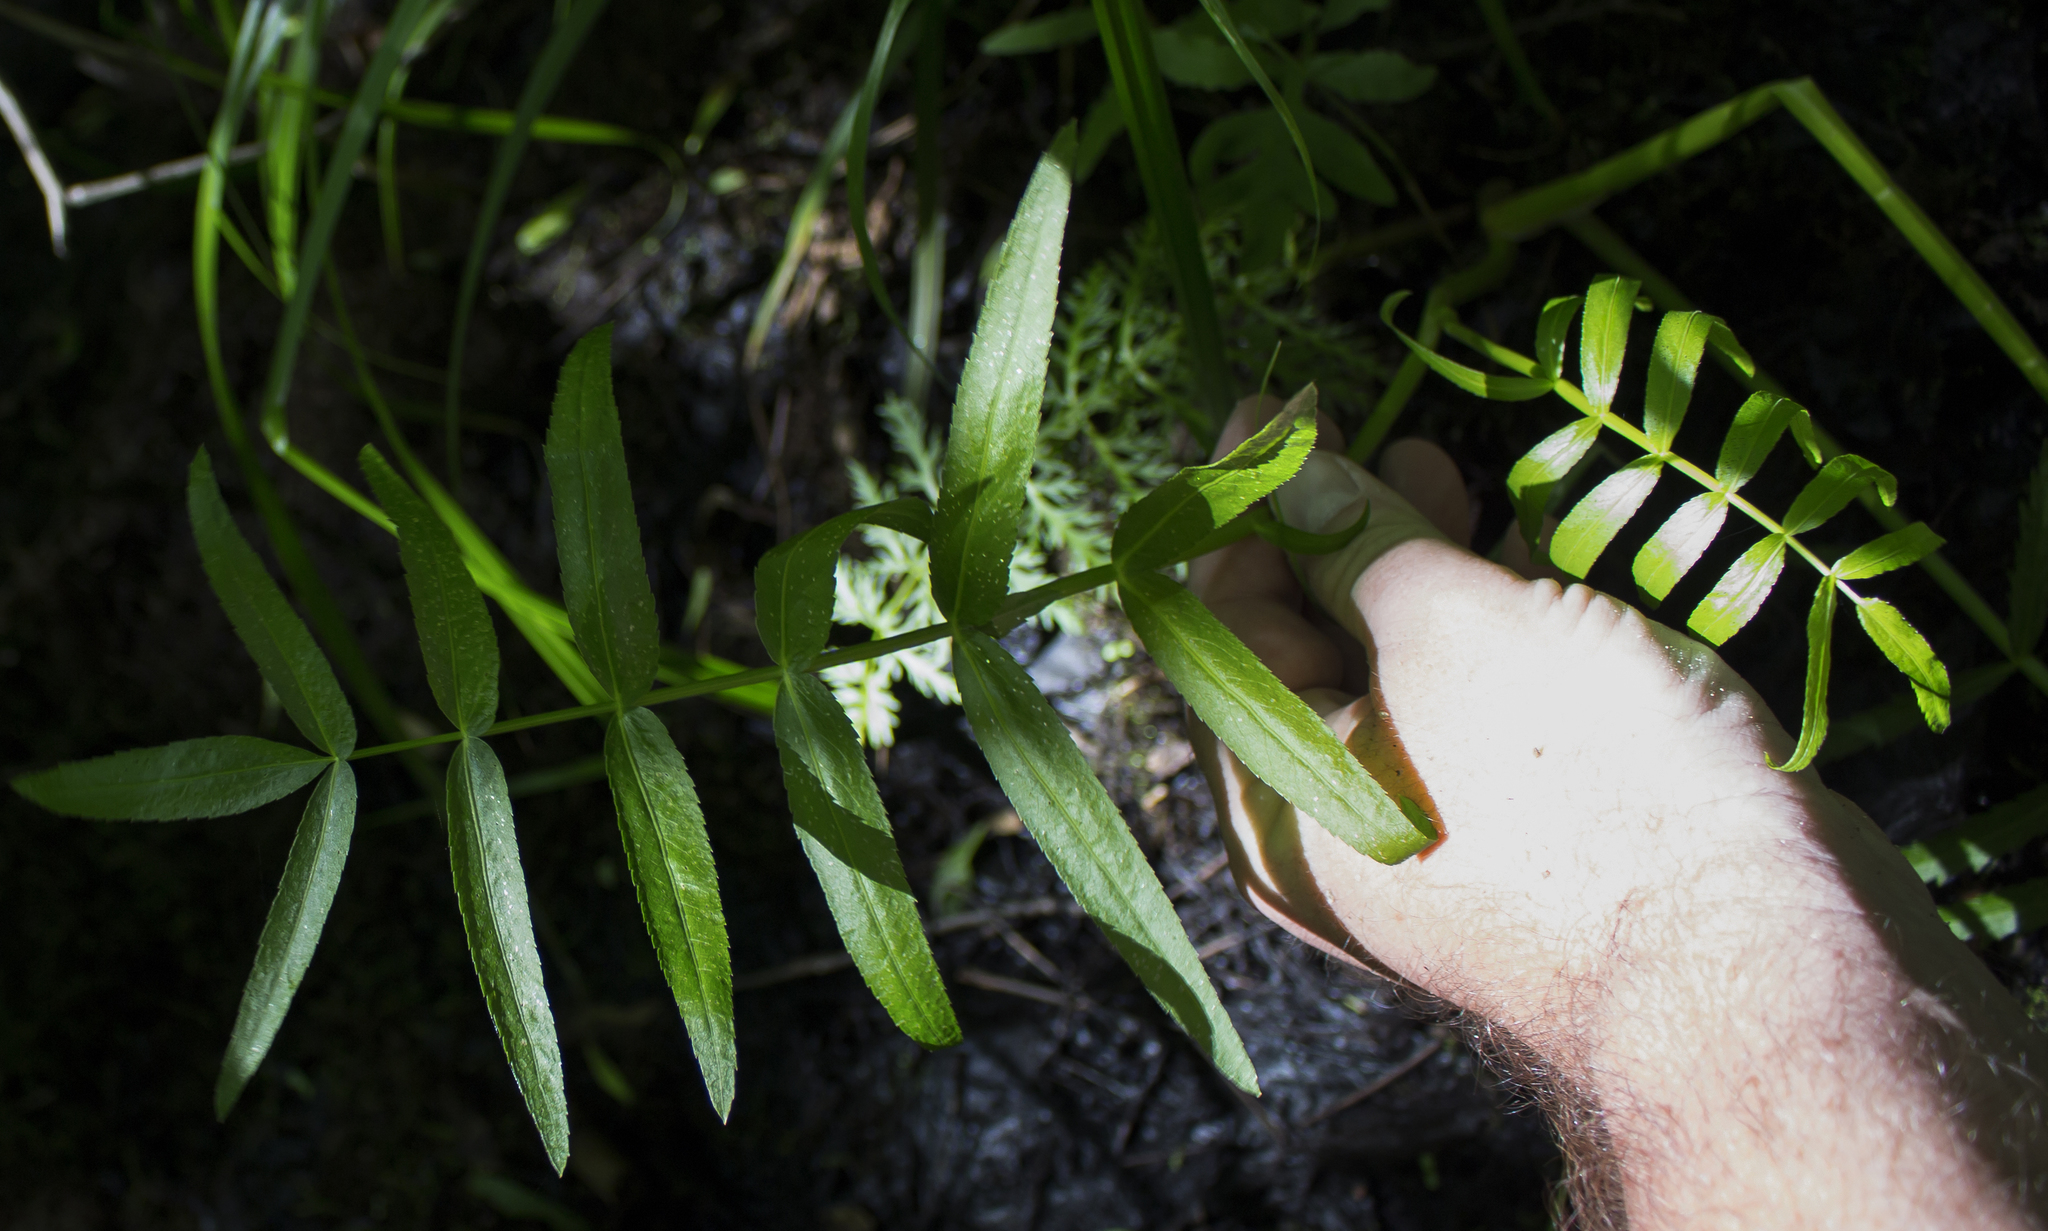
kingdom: Plantae
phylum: Tracheophyta
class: Magnoliopsida
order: Apiales
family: Apiaceae
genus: Sium
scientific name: Sium suave
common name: Hemlock water-parsnip
